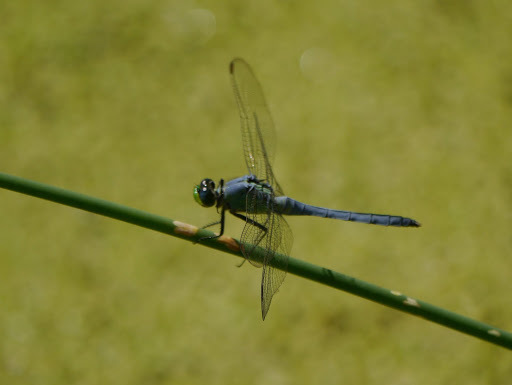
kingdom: Animalia
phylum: Arthropoda
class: Insecta
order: Odonata
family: Libellulidae
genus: Erythemis
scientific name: Erythemis simplicicollis
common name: Eastern pondhawk
